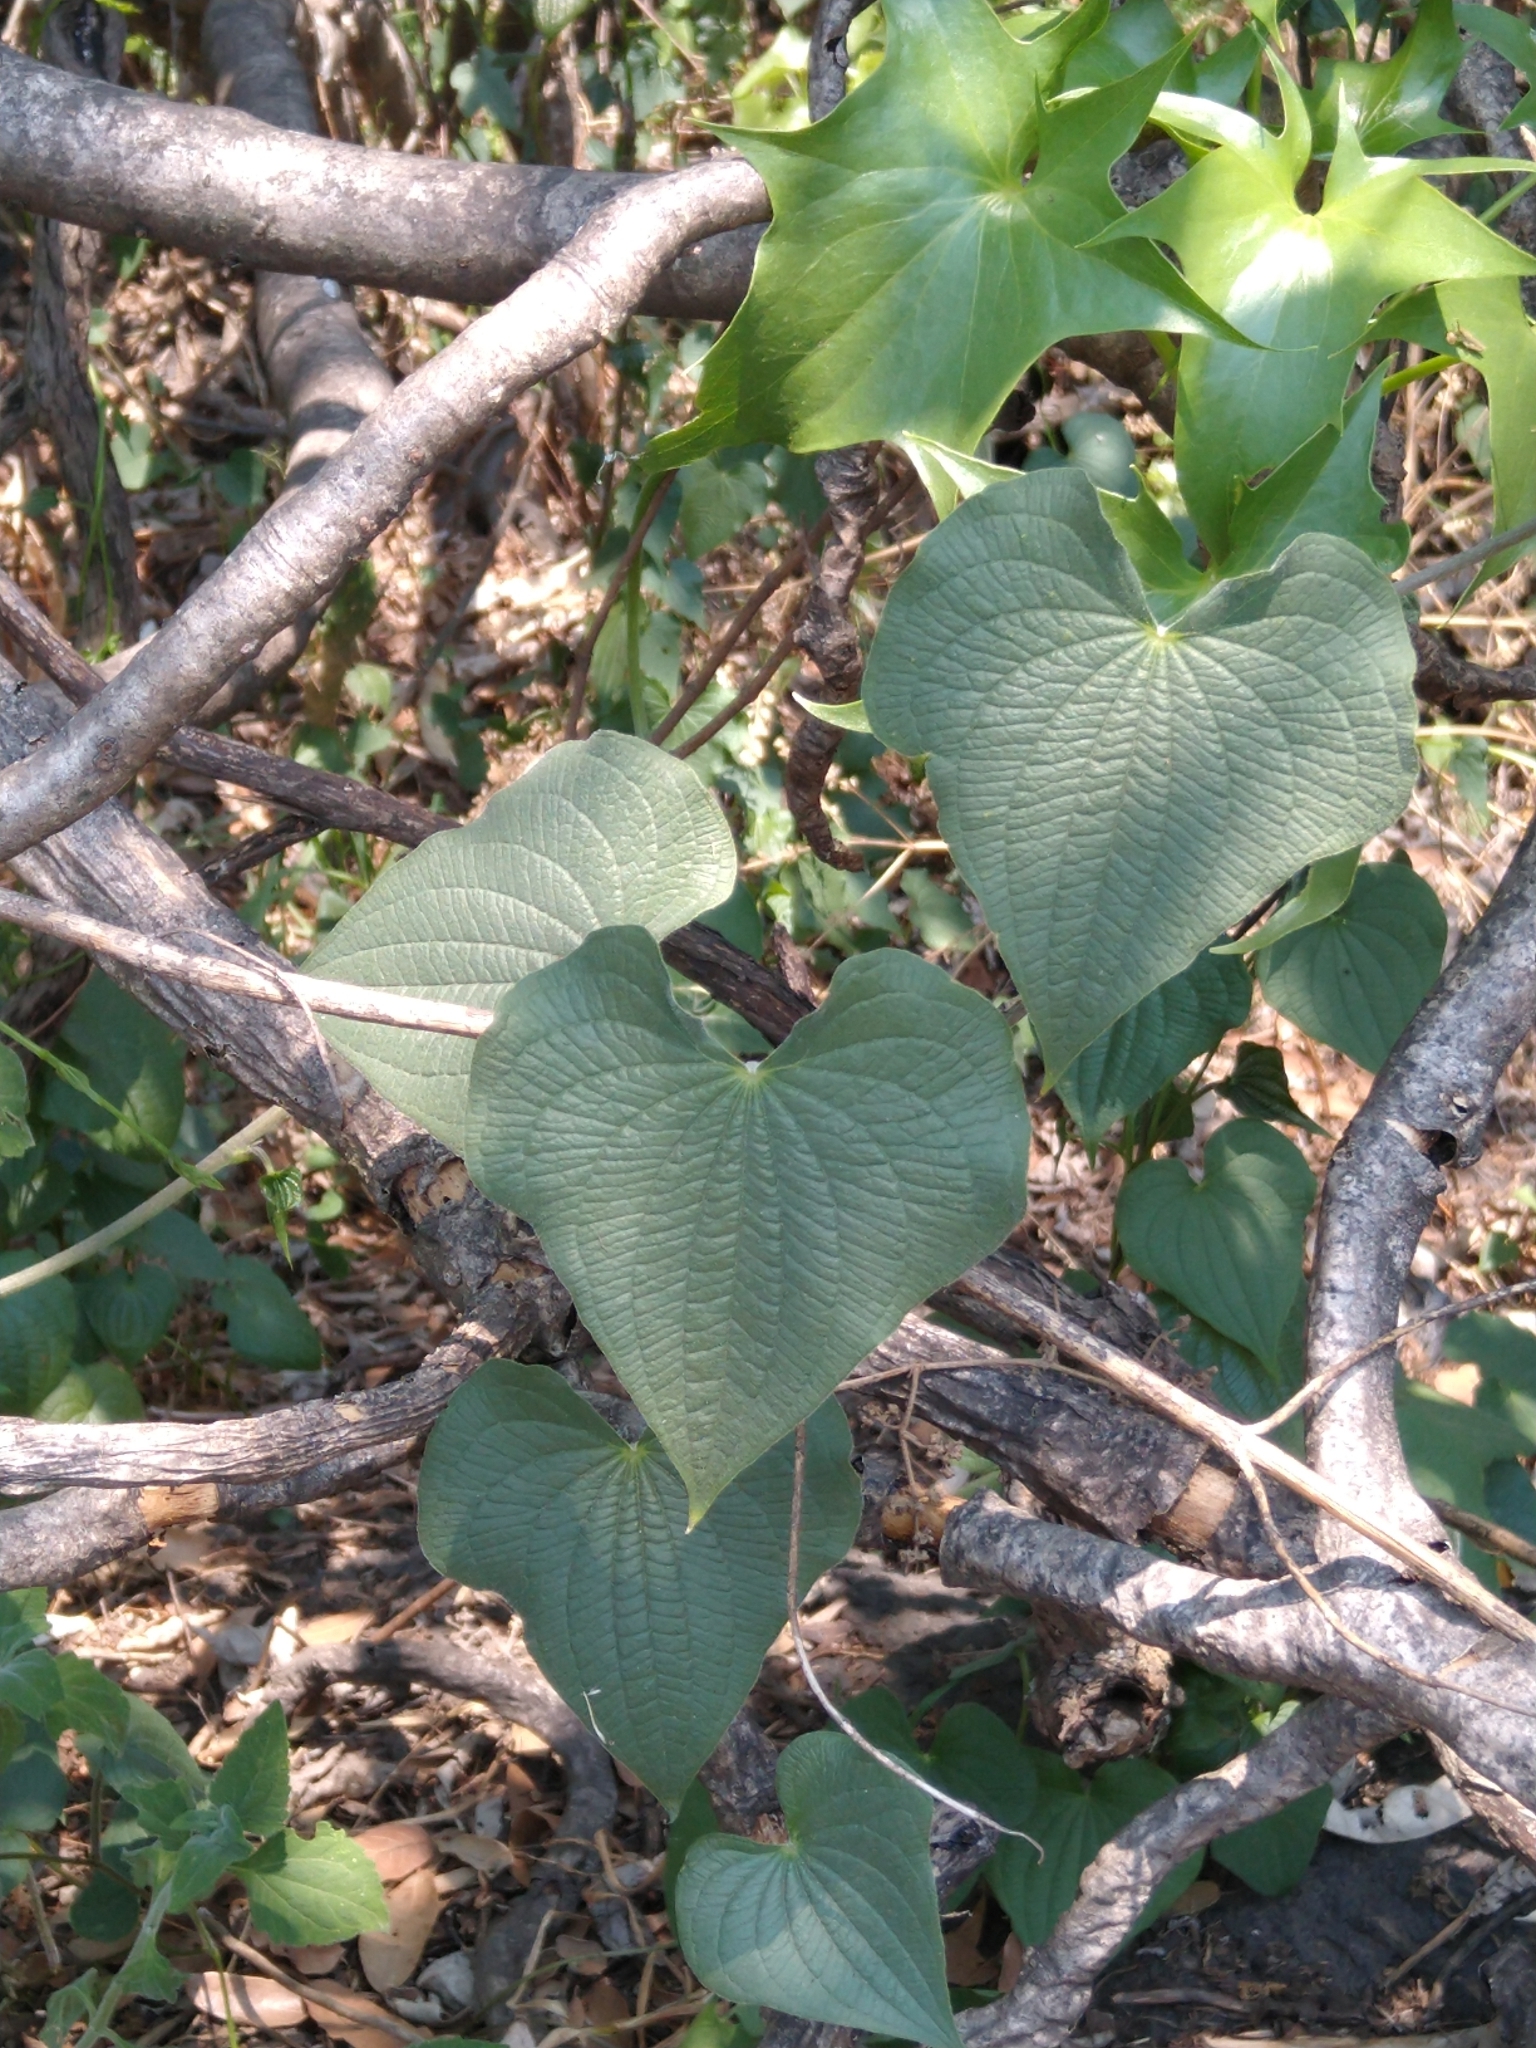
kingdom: Plantae
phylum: Tracheophyta
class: Liliopsida
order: Dioscoreales
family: Dioscoreaceae
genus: Dioscorea
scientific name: Dioscorea galeottiana
